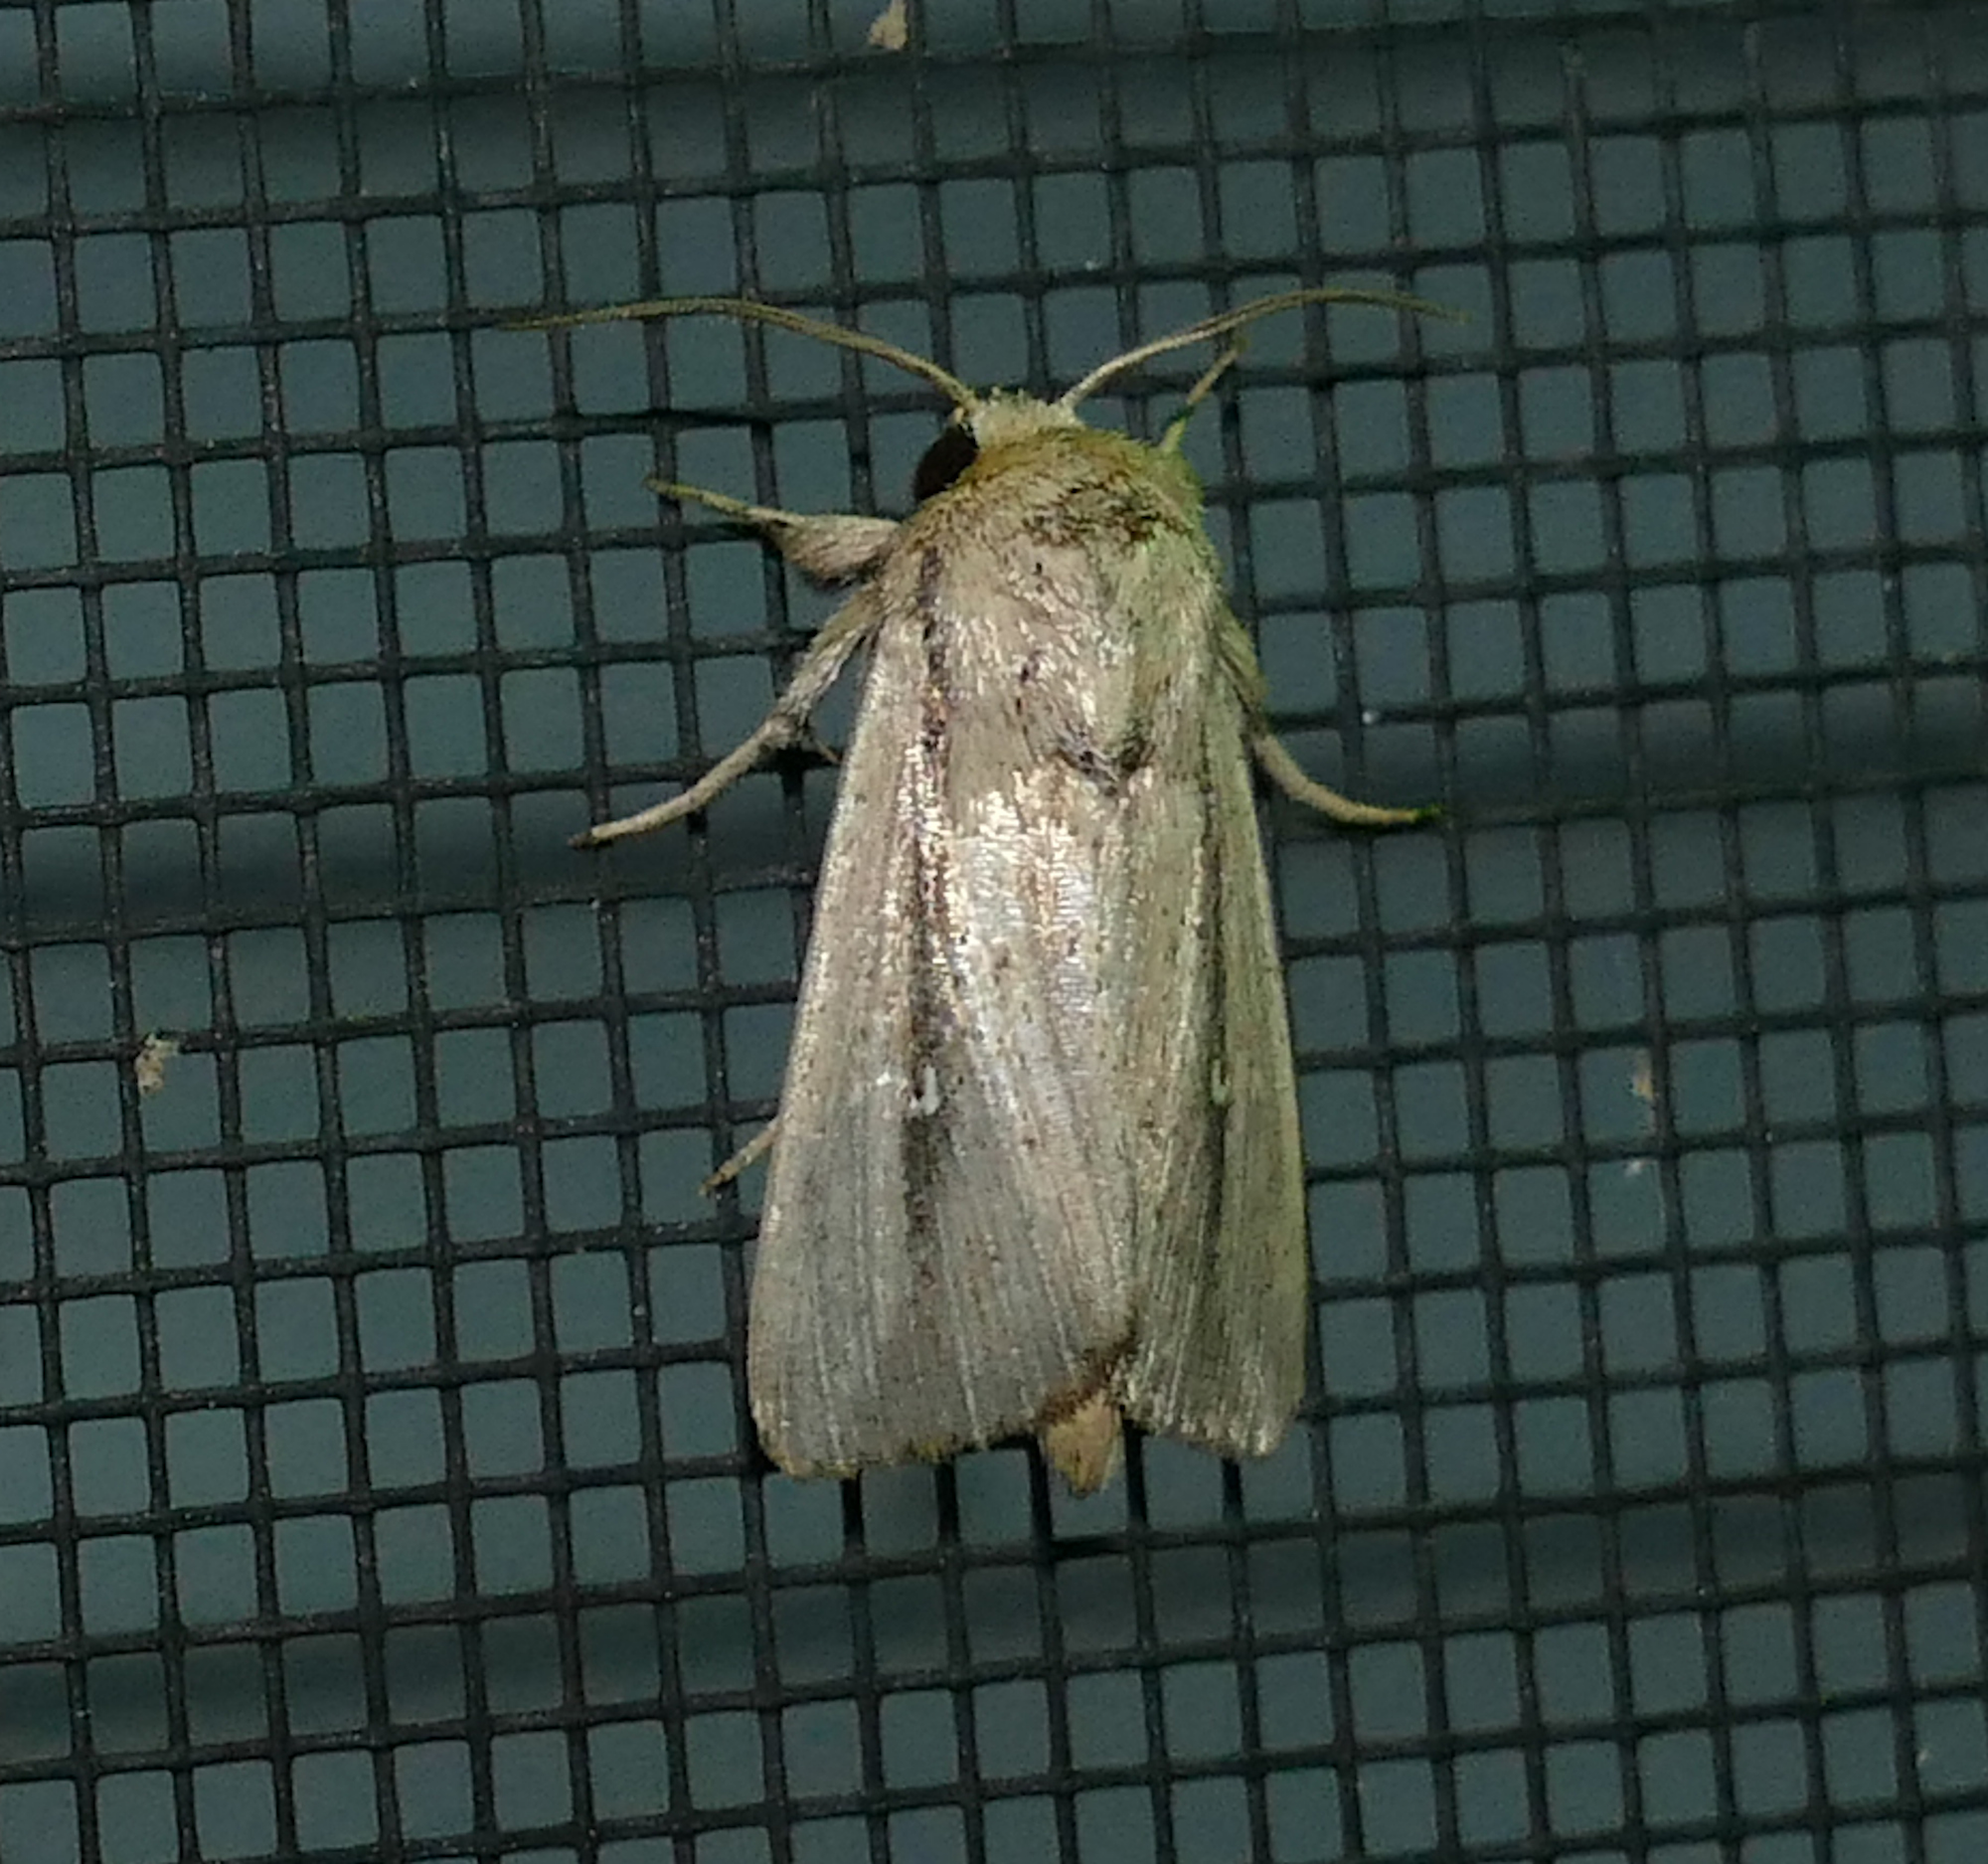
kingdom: Animalia
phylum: Arthropoda
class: Insecta
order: Lepidoptera
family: Noctuidae
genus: Leucania
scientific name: Leucania incognita
